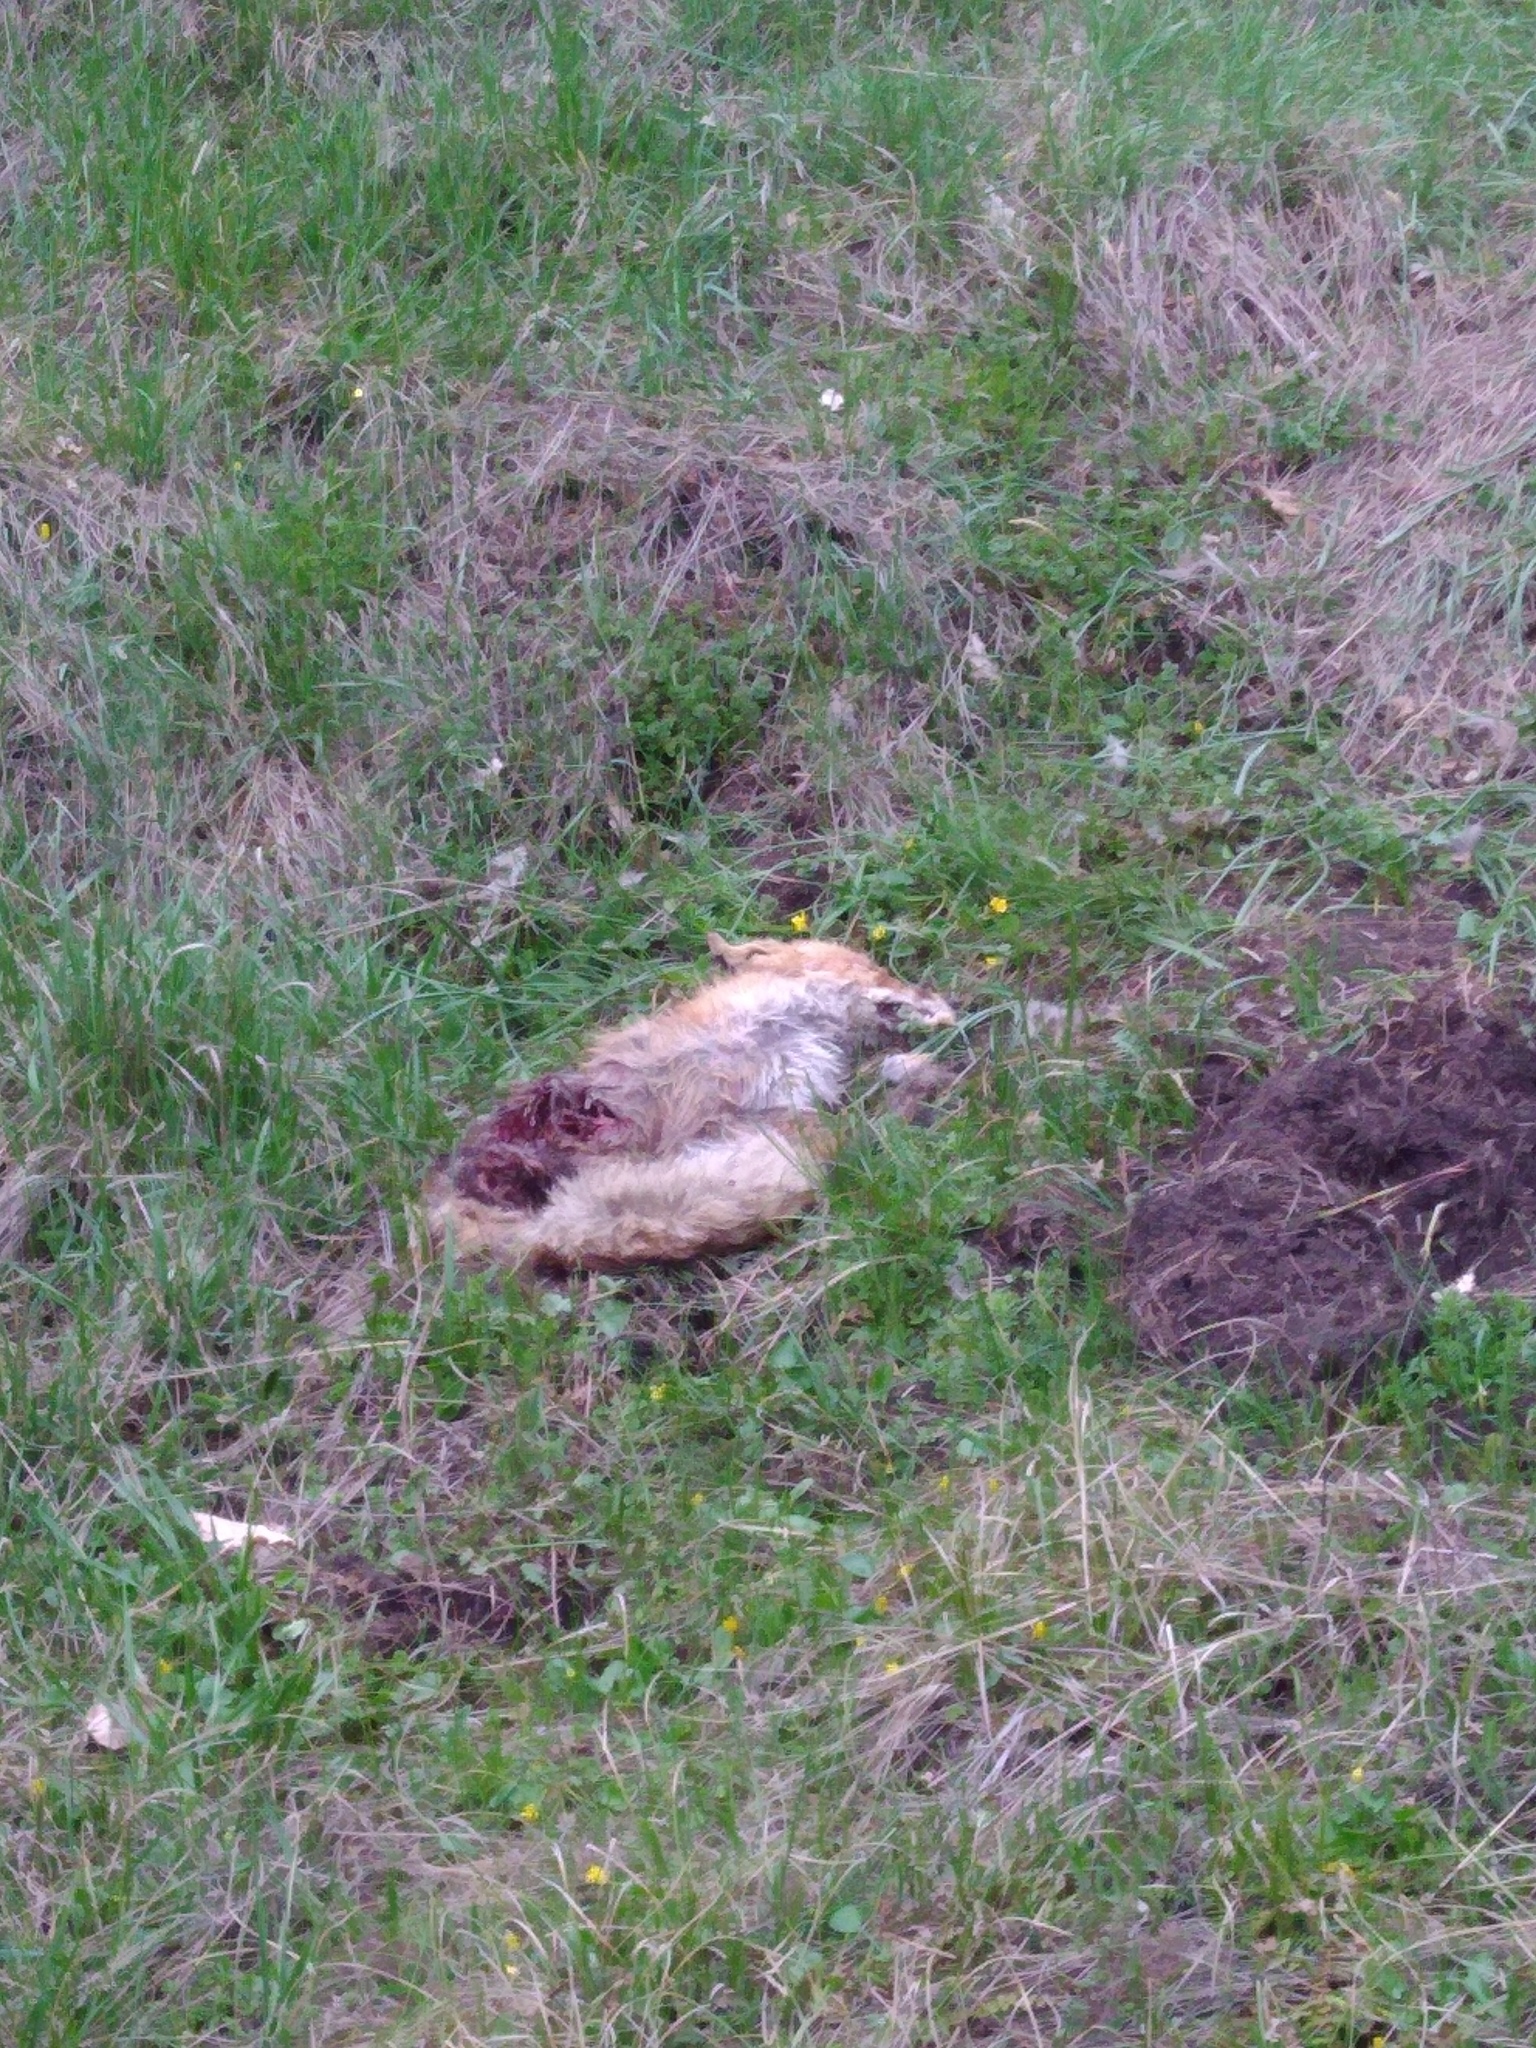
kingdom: Animalia
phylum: Chordata
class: Mammalia
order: Carnivora
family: Canidae
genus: Vulpes
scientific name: Vulpes vulpes
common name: Red fox
